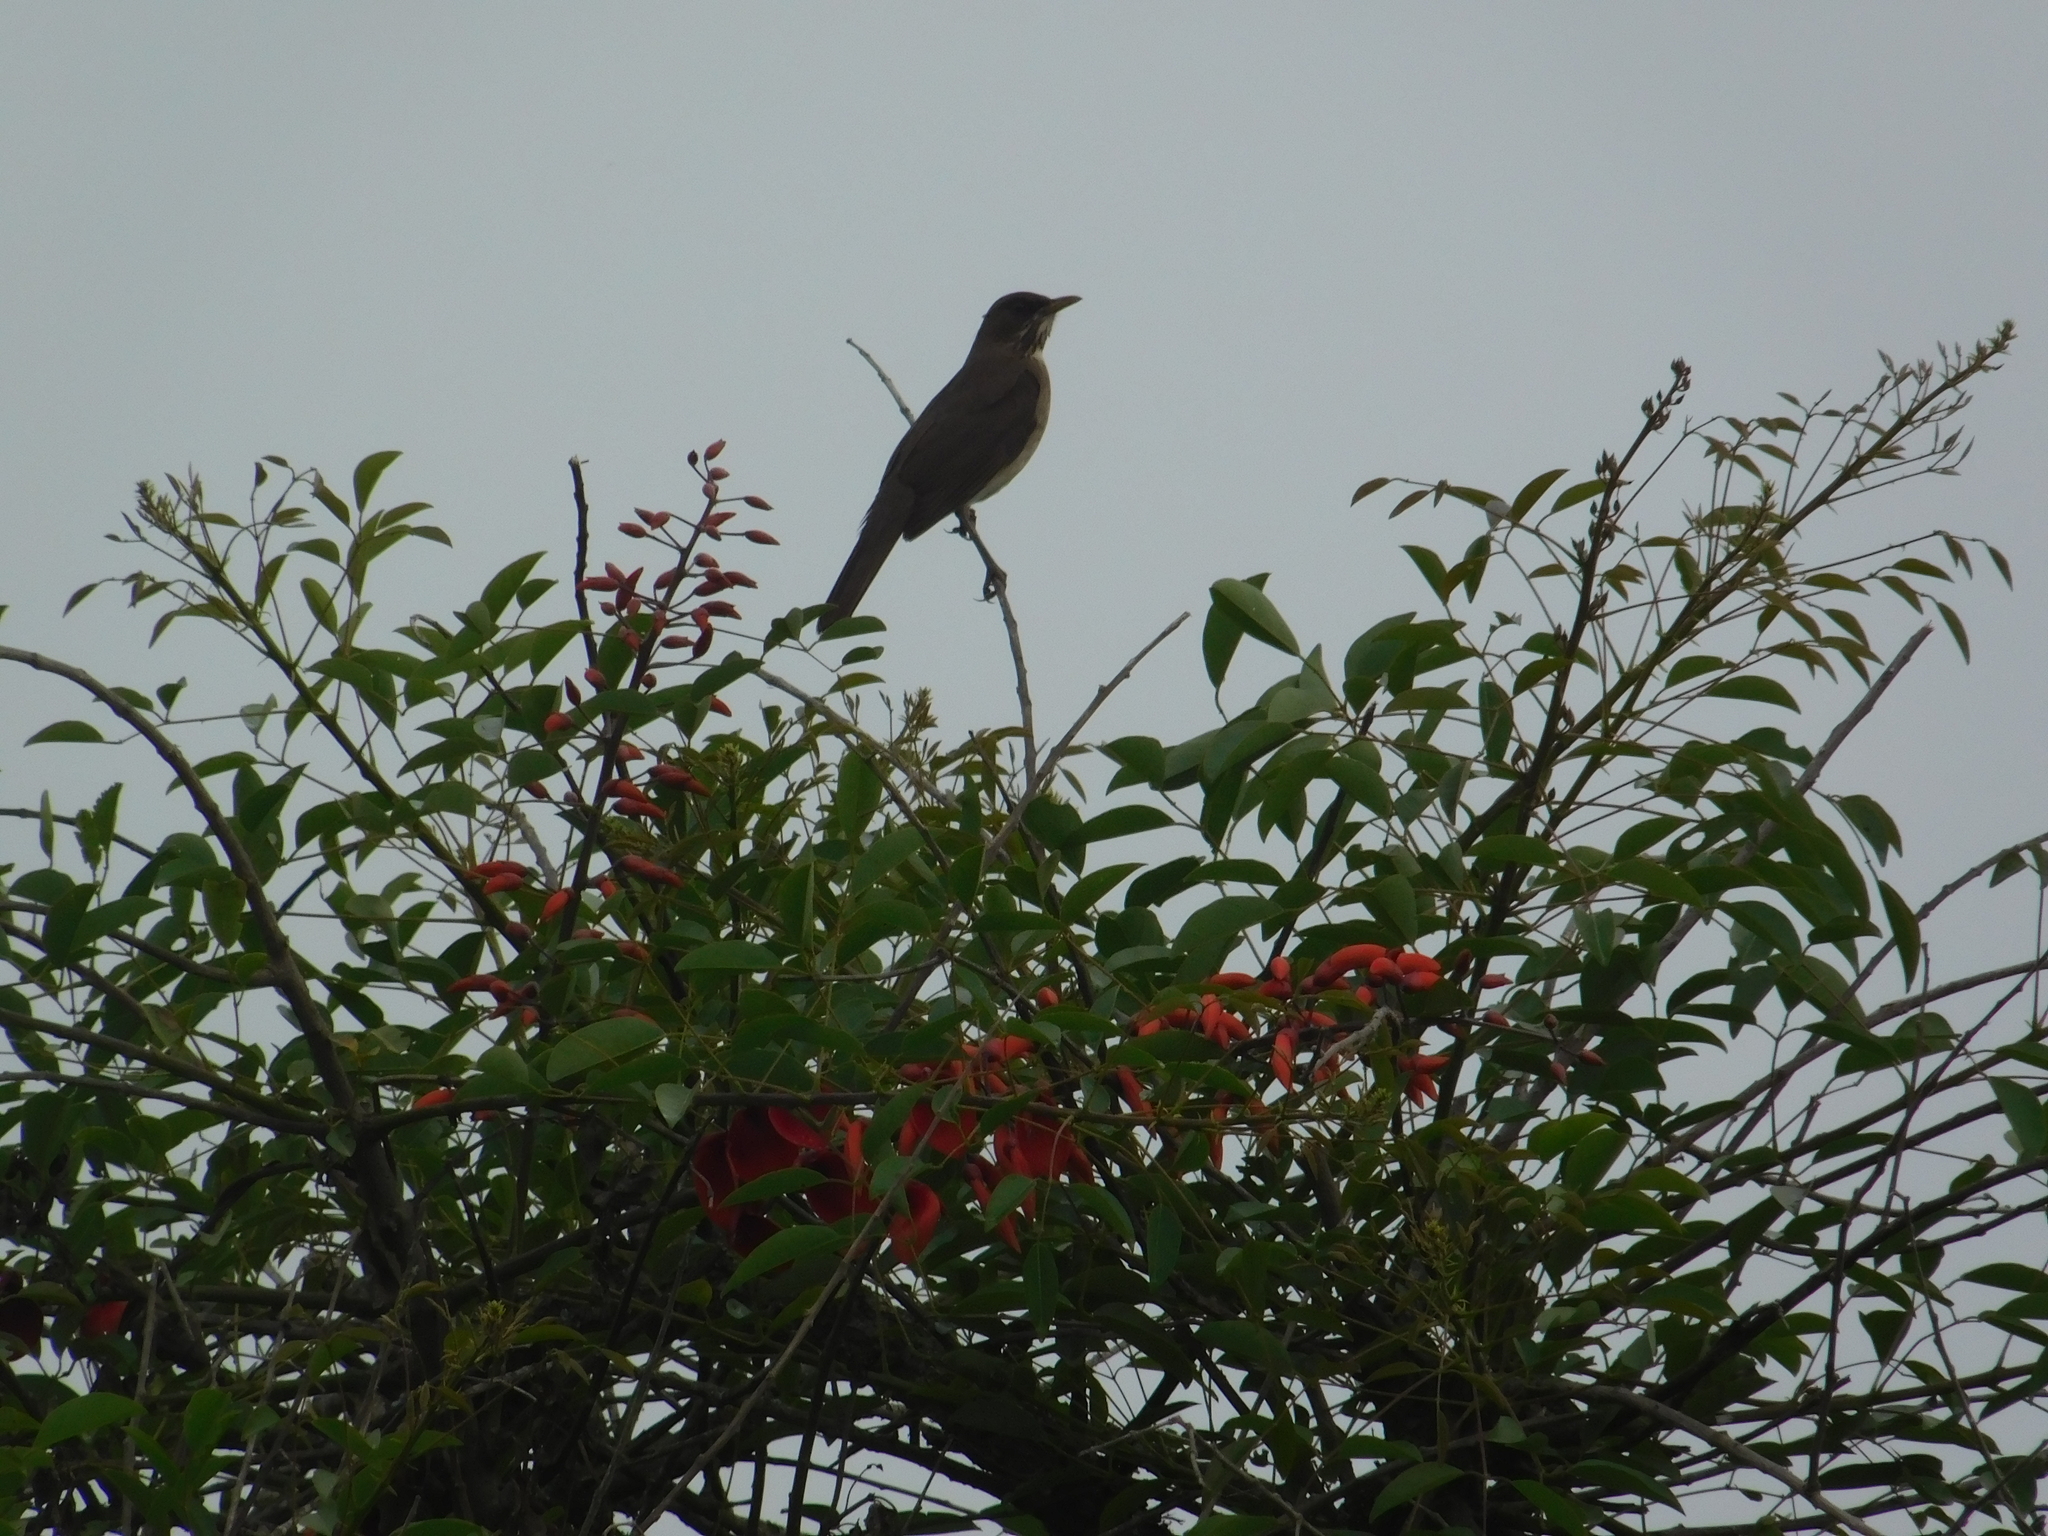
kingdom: Animalia
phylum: Chordata
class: Aves
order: Passeriformes
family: Turdidae
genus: Turdus
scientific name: Turdus amaurochalinus
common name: Creamy-bellied thrush
